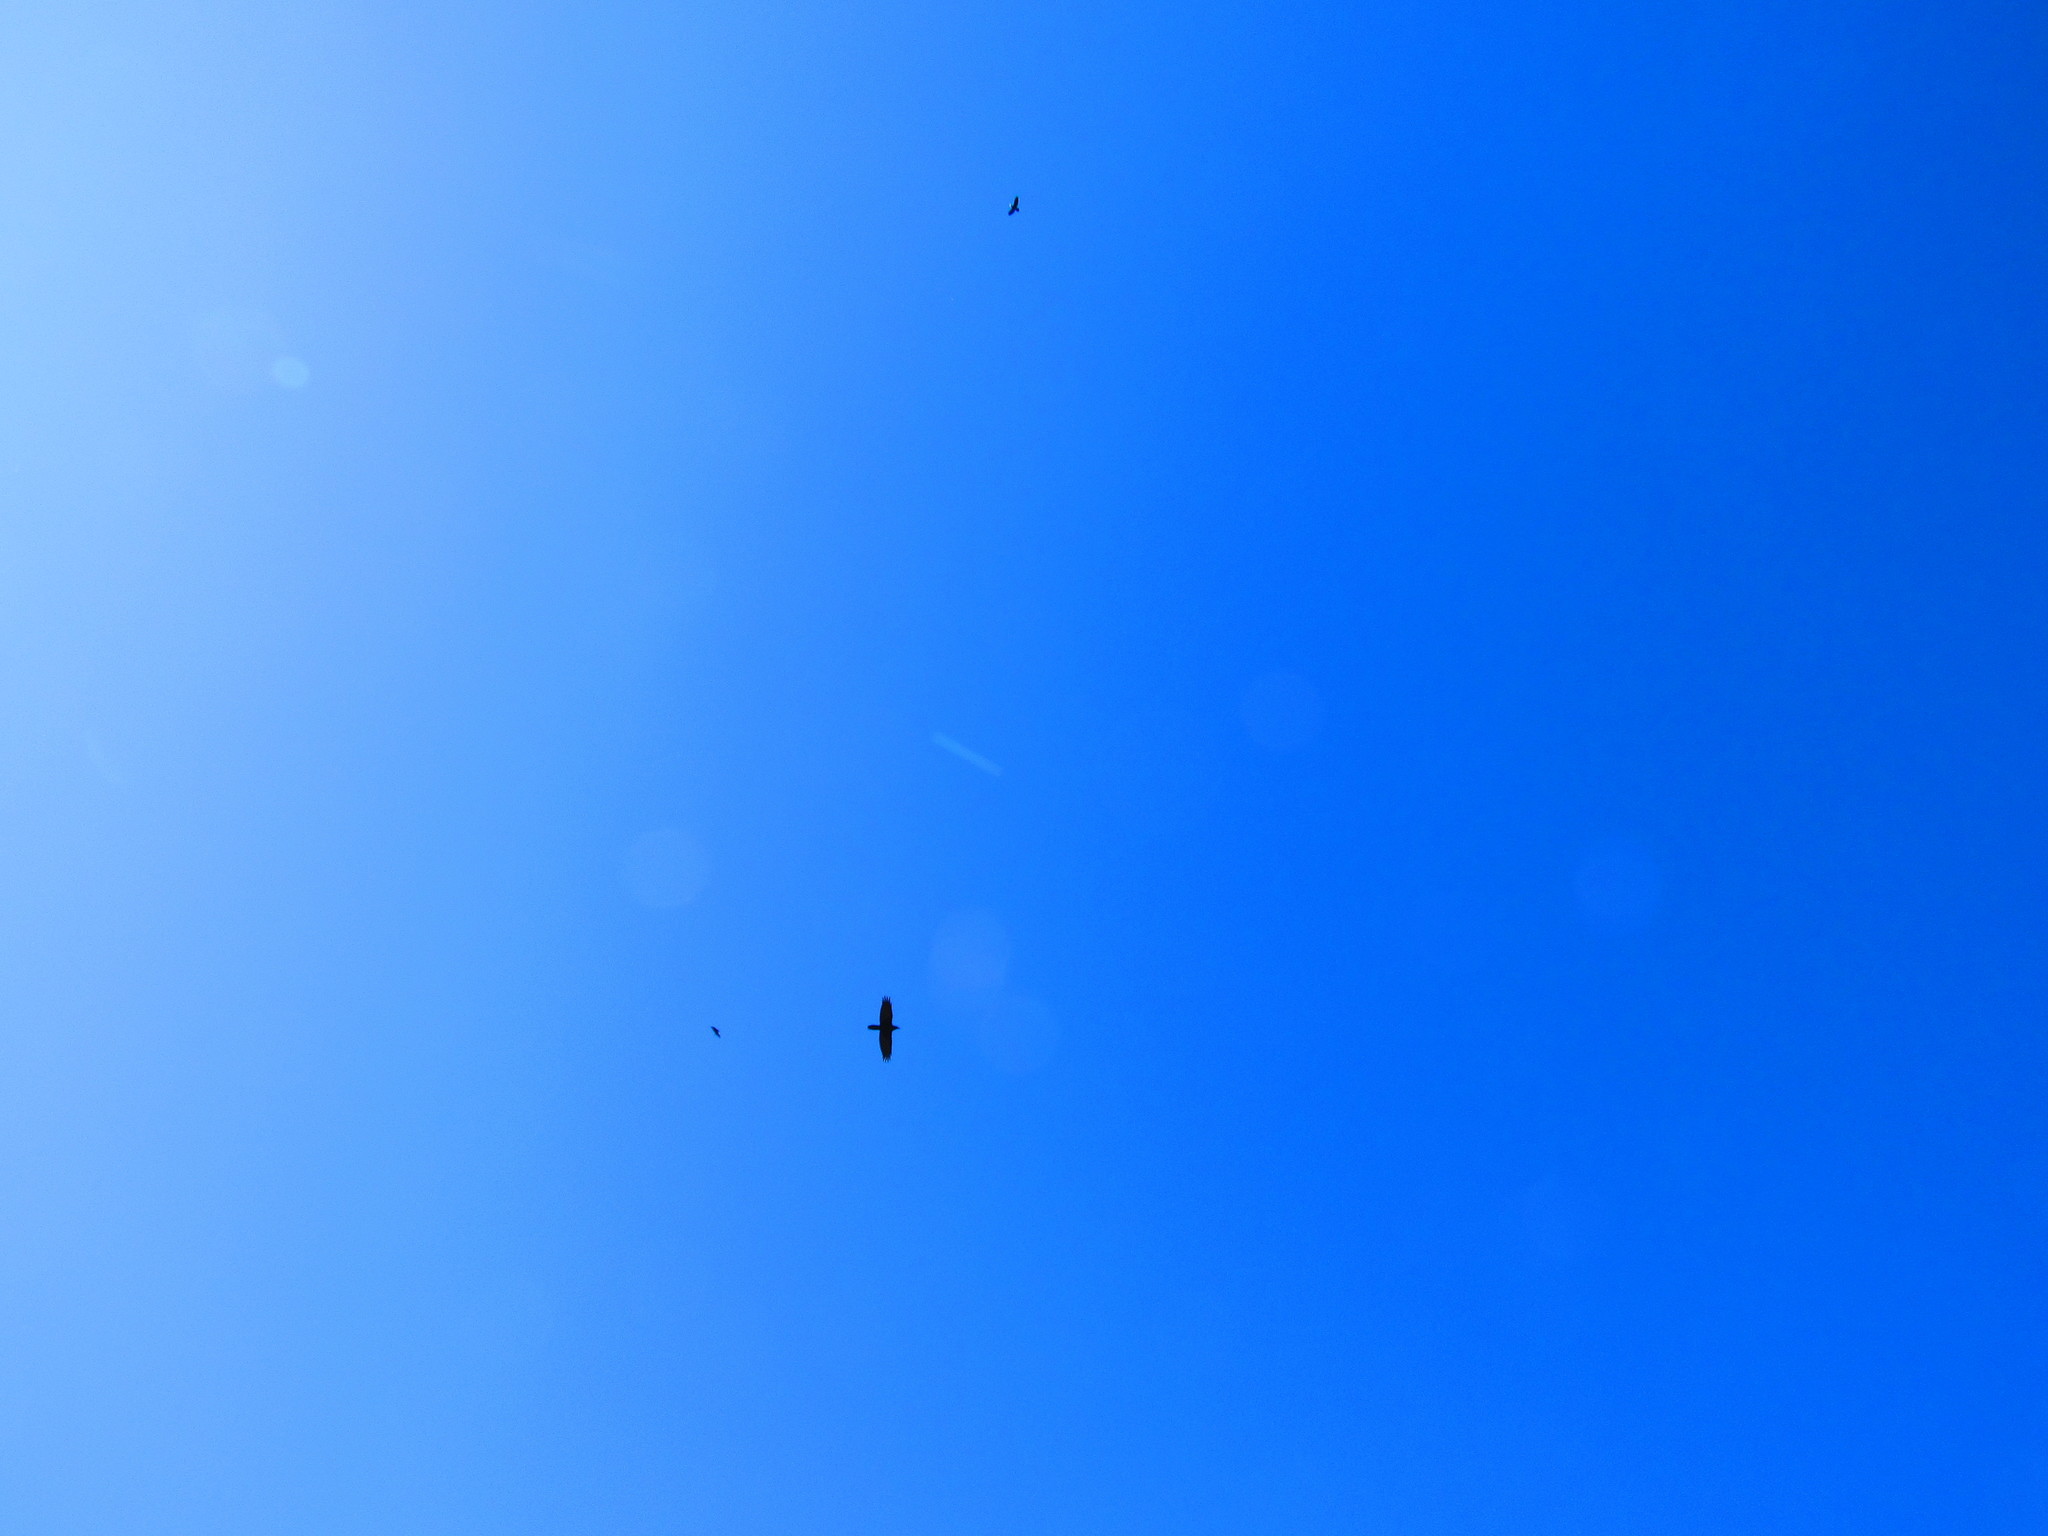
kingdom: Animalia
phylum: Chordata
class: Aves
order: Passeriformes
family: Corvidae
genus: Corvus
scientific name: Corvus corax
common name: Common raven
